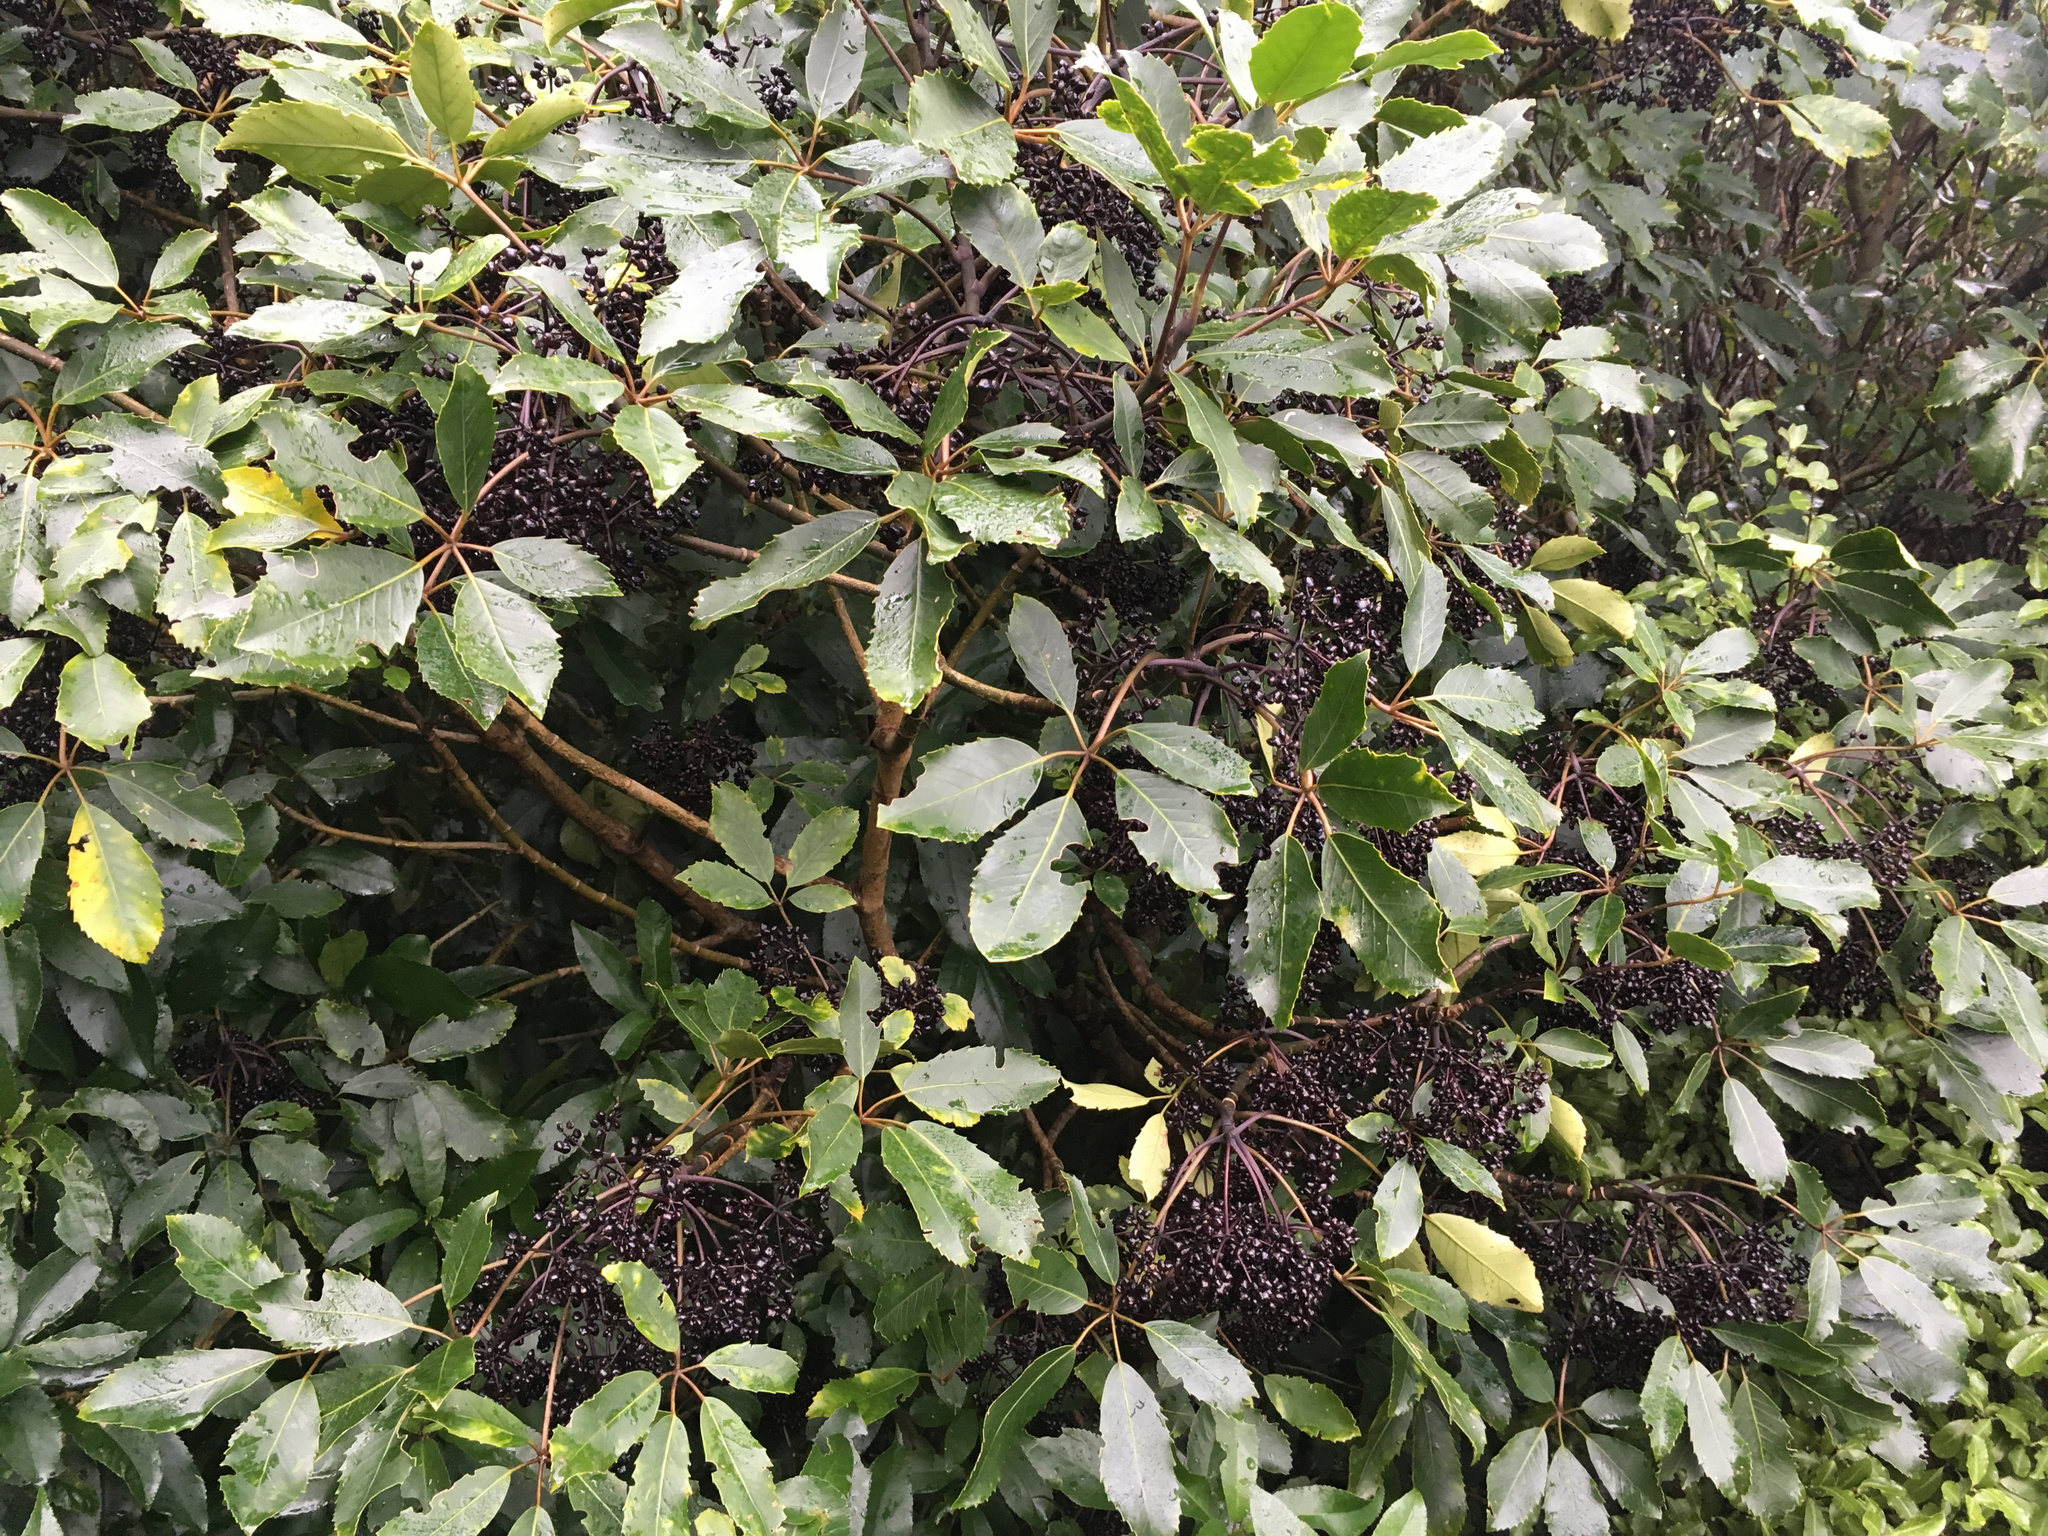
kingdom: Plantae
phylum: Tracheophyta
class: Magnoliopsida
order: Apiales
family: Araliaceae
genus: Neopanax
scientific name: Neopanax arboreus
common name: Five-fingers
